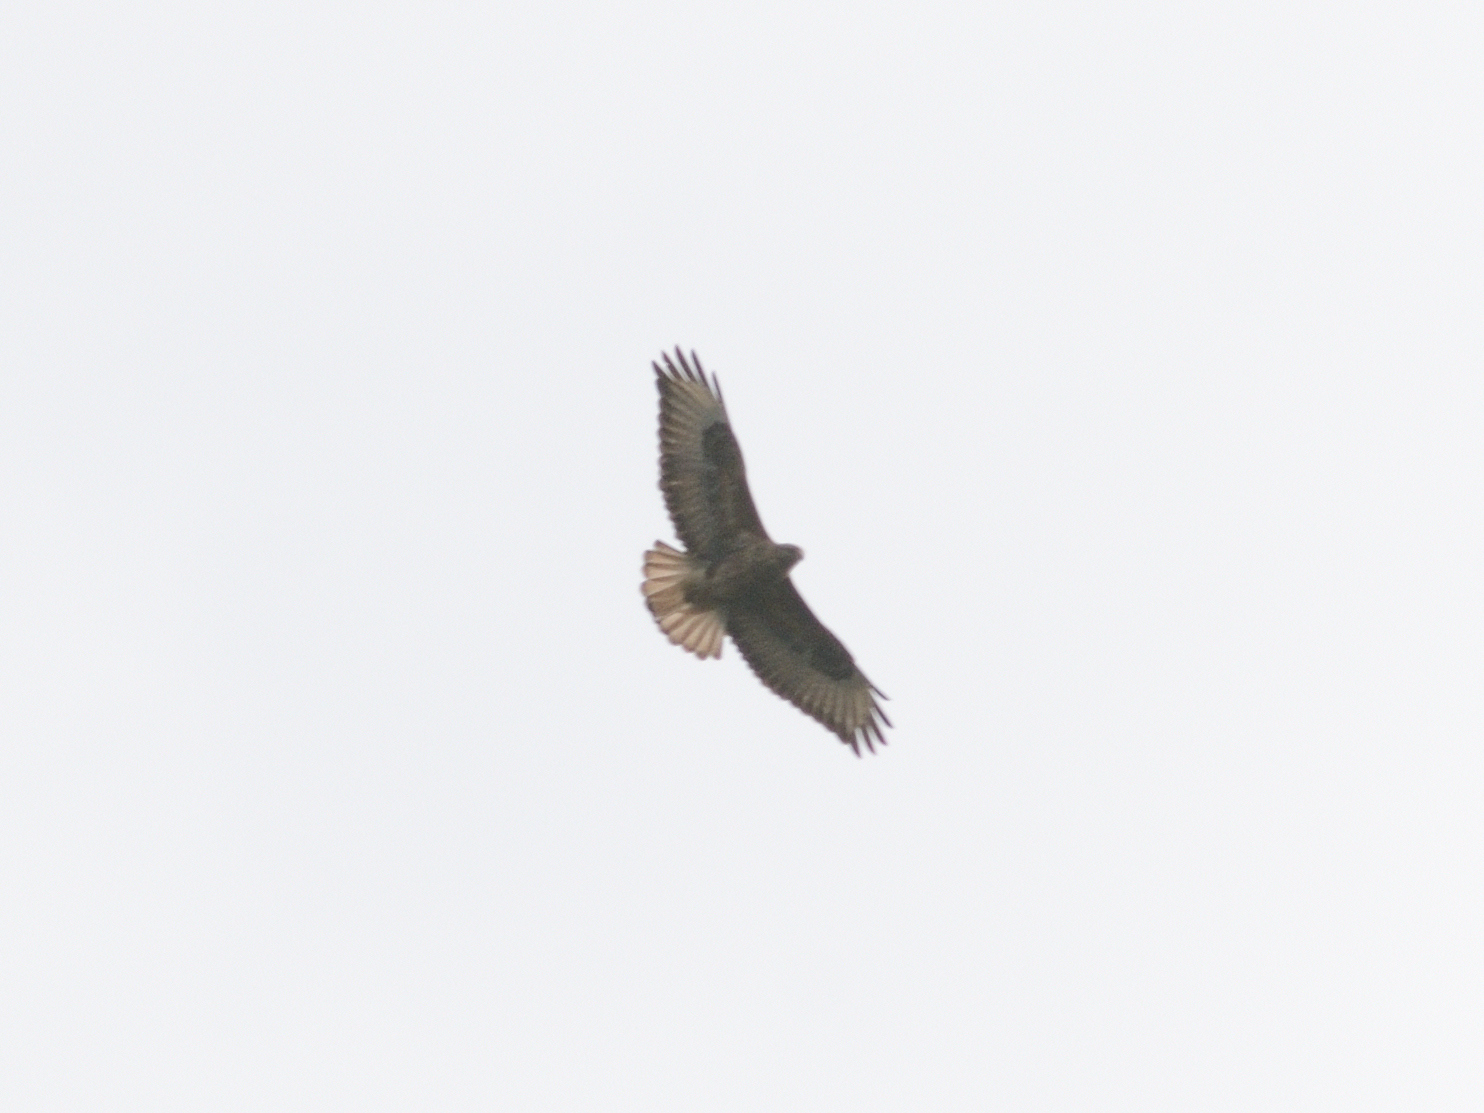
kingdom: Animalia
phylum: Chordata
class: Aves
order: Accipitriformes
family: Accipitridae
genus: Buteo
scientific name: Buteo buteo
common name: Common buzzard
